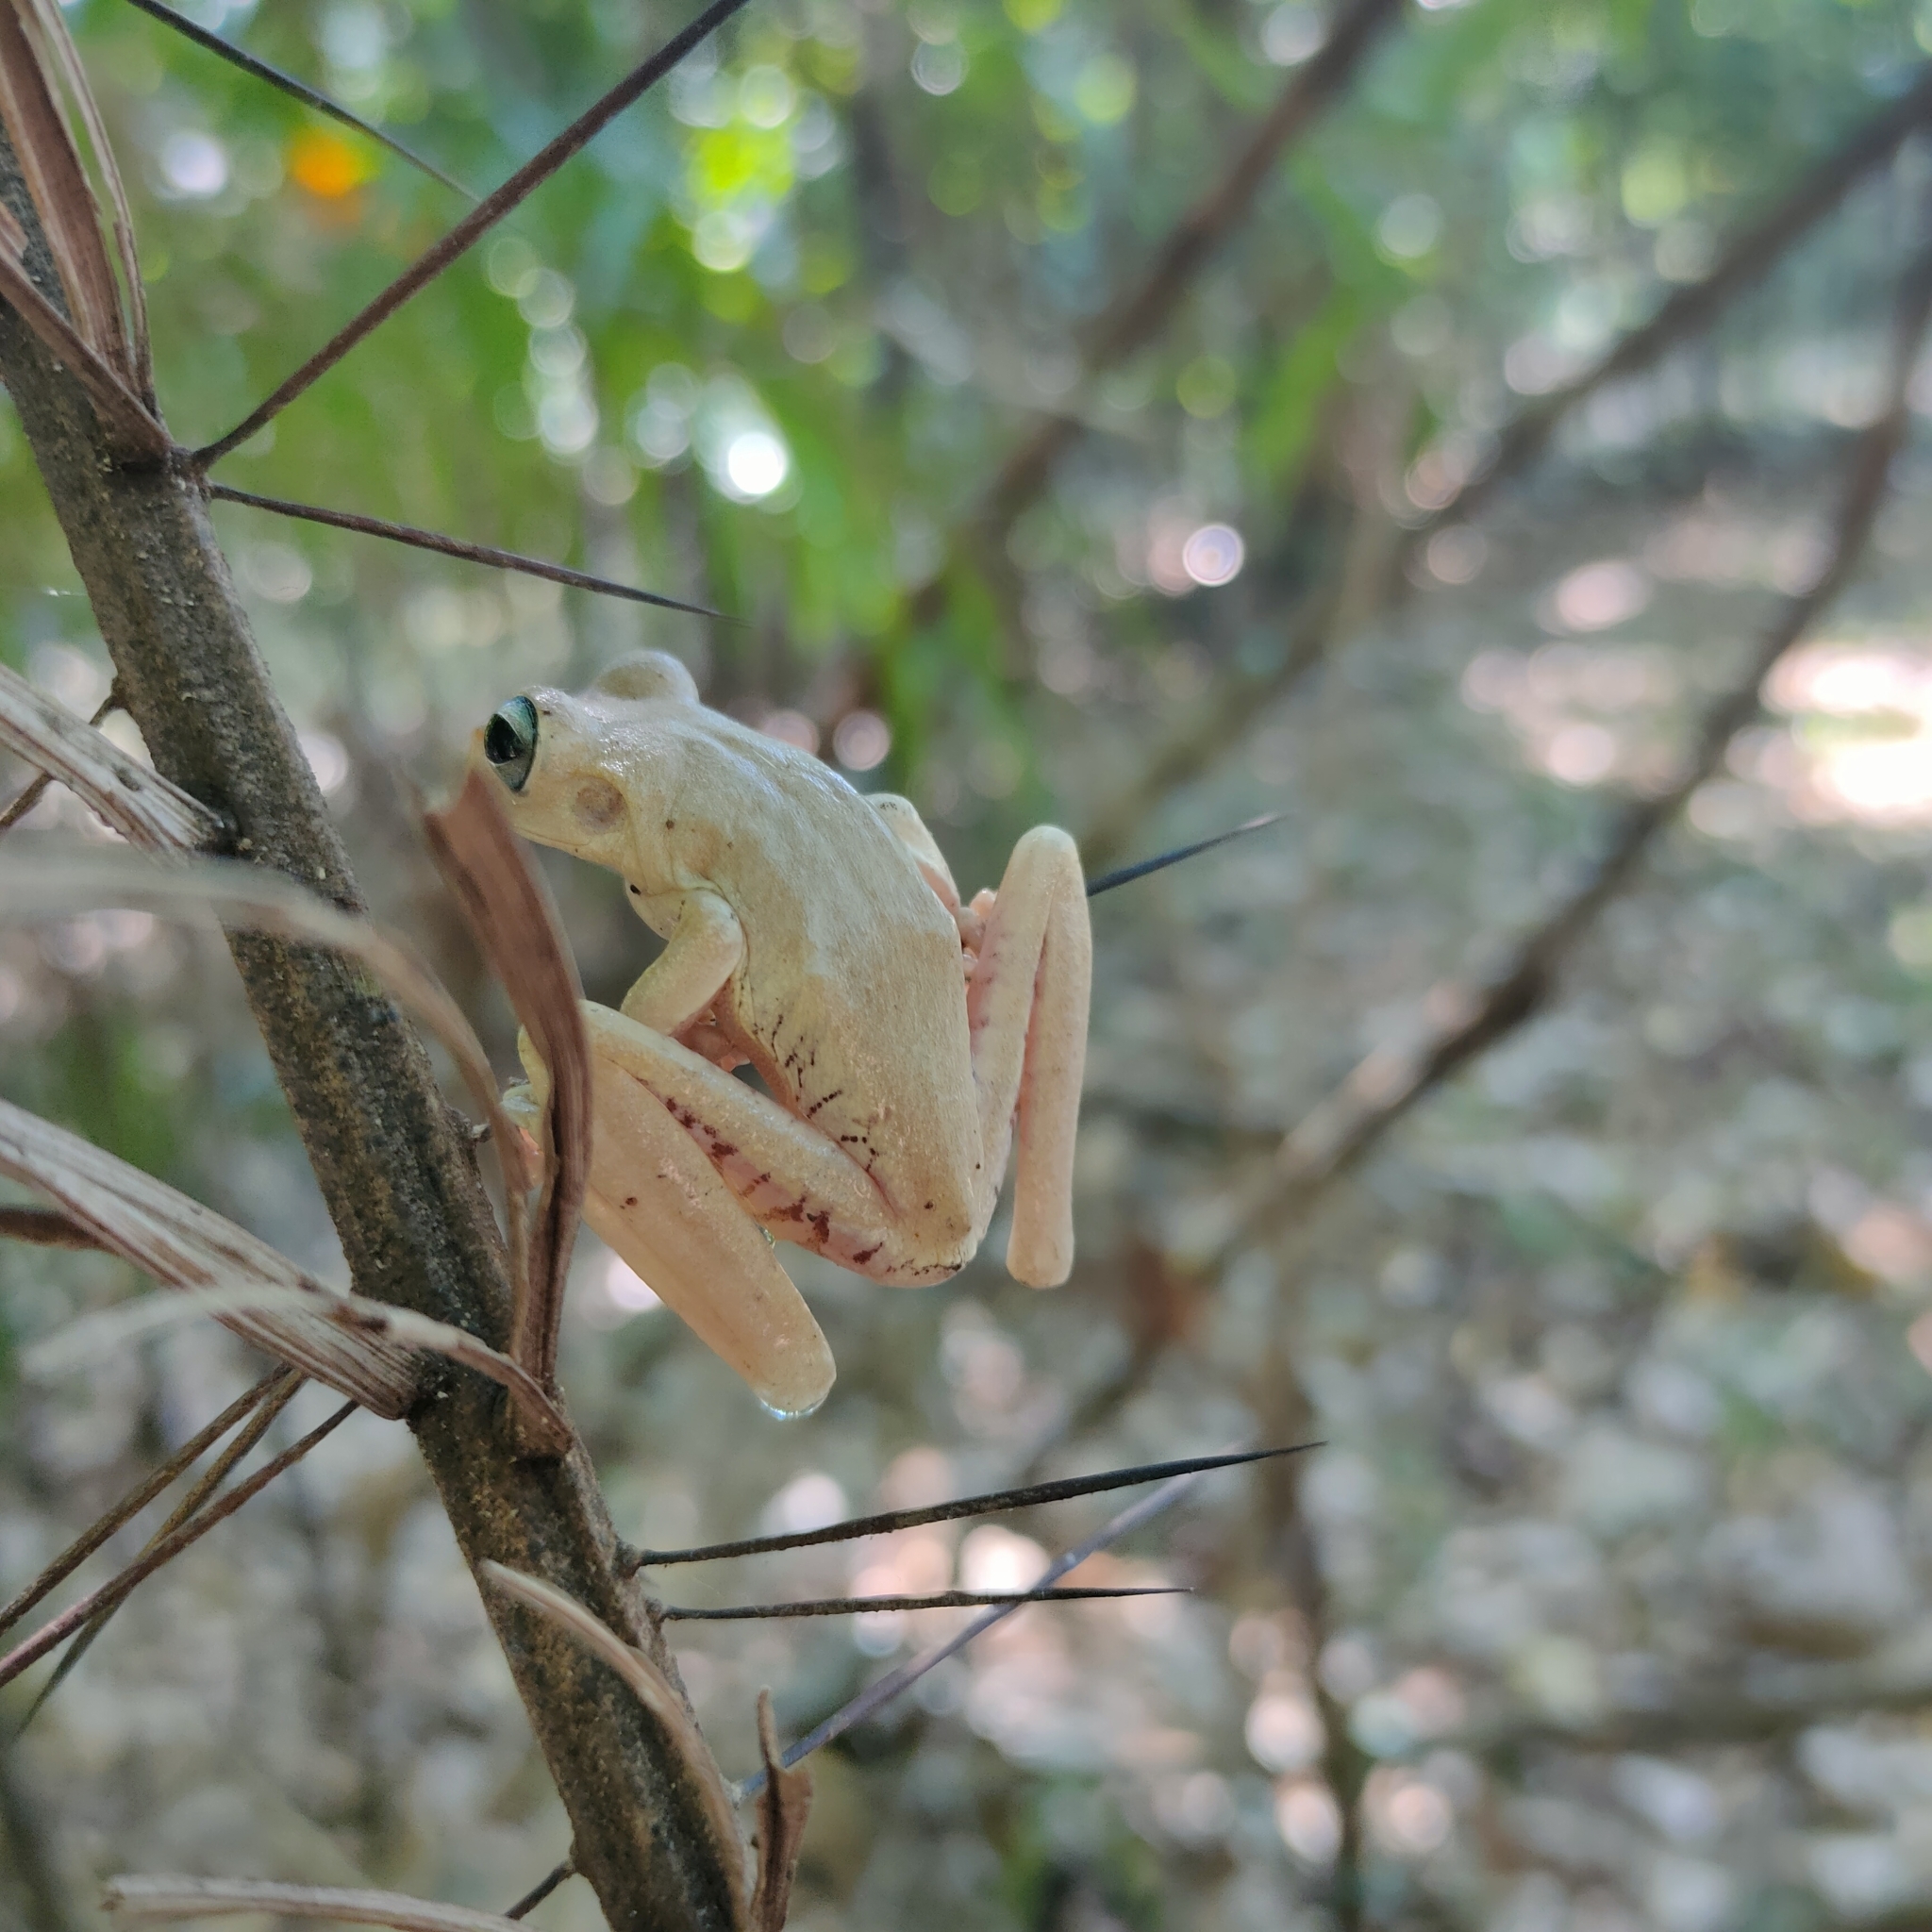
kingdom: Animalia
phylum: Chordata
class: Amphibia
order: Anura
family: Hylidae
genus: Boana
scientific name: Boana platanera
